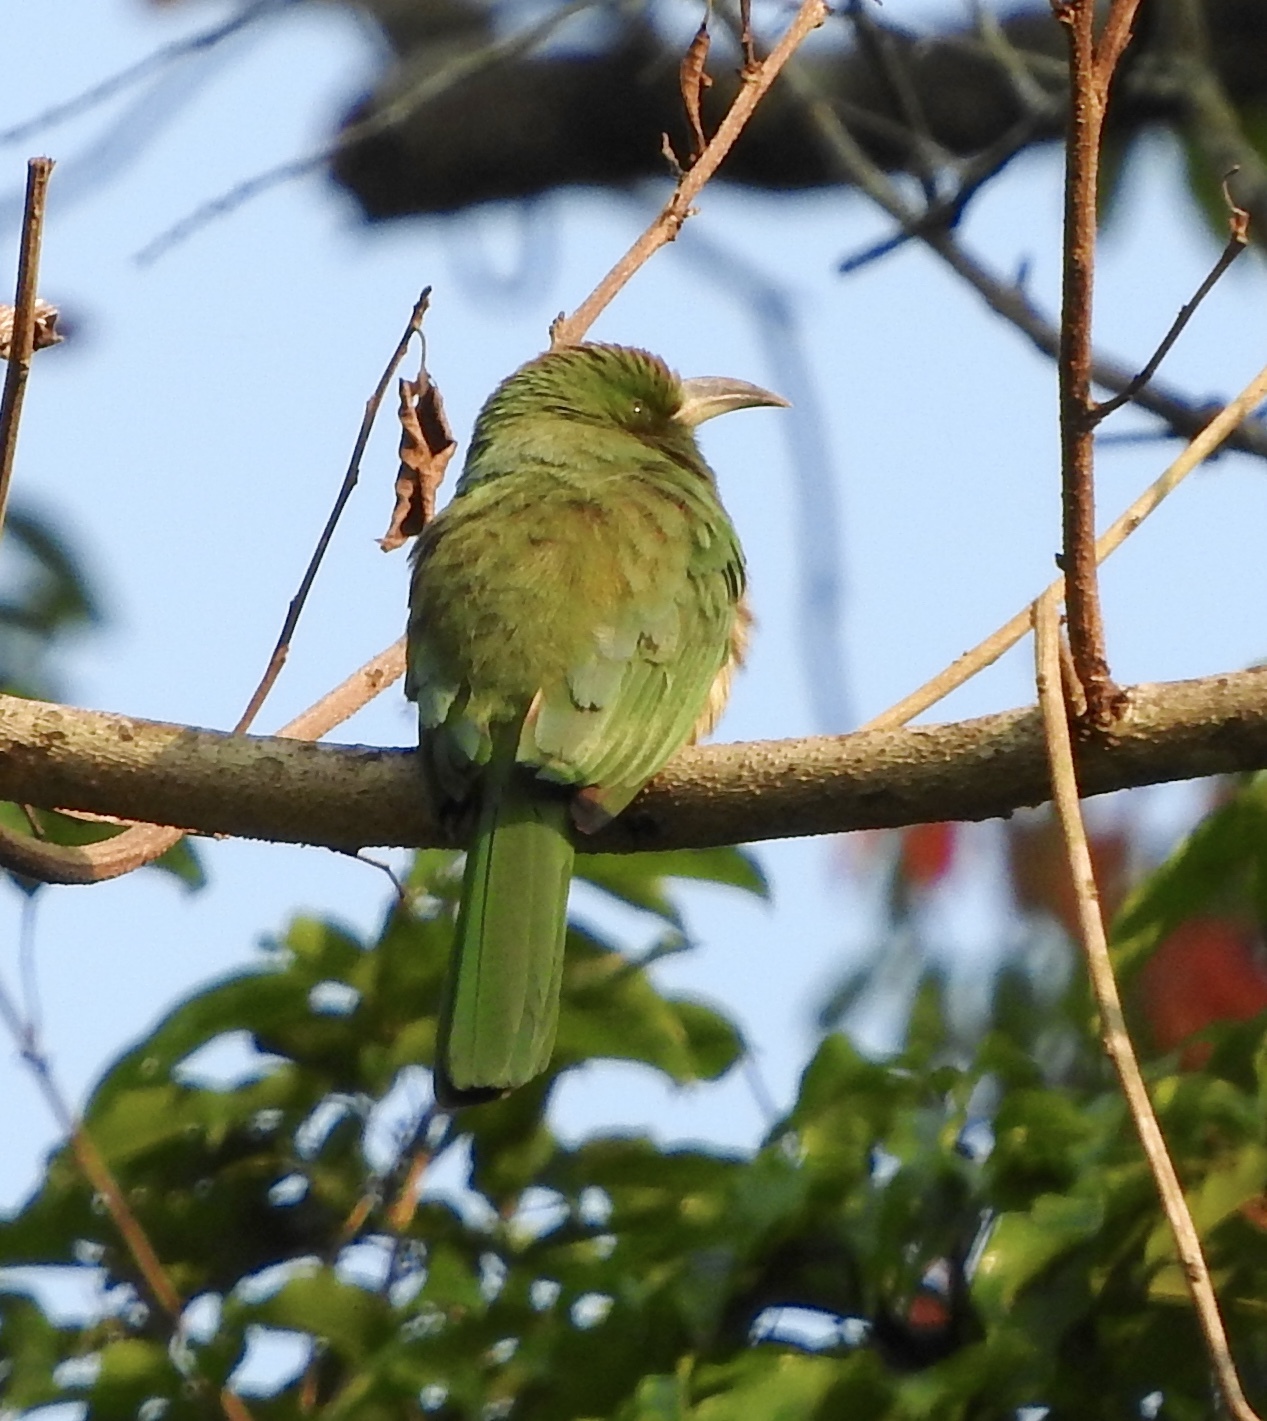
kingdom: Animalia
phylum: Chordata
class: Aves
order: Coraciiformes
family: Meropidae
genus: Nyctyornis
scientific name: Nyctyornis athertoni
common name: Blue-bearded bee-eater
